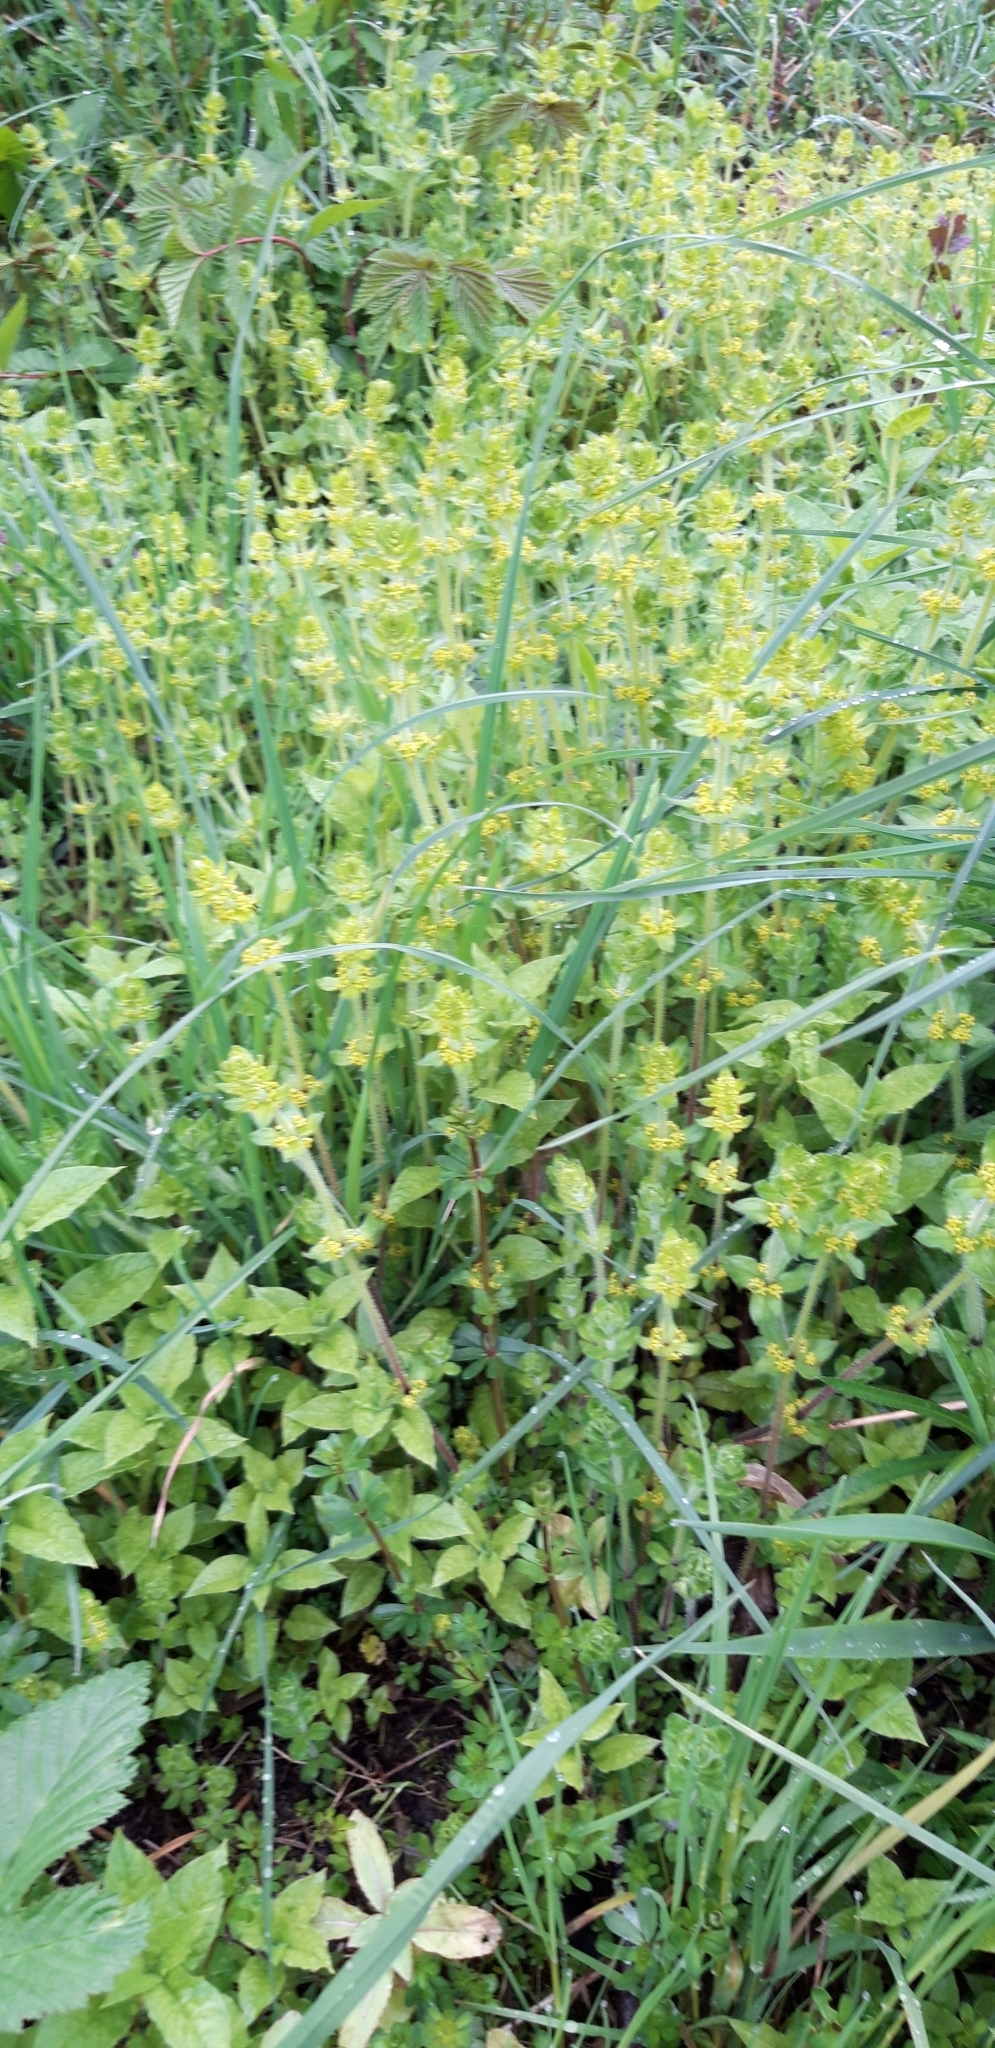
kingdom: Plantae
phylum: Tracheophyta
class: Magnoliopsida
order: Gentianales
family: Rubiaceae
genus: Cruciata
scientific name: Cruciata laevipes
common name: Crosswort
